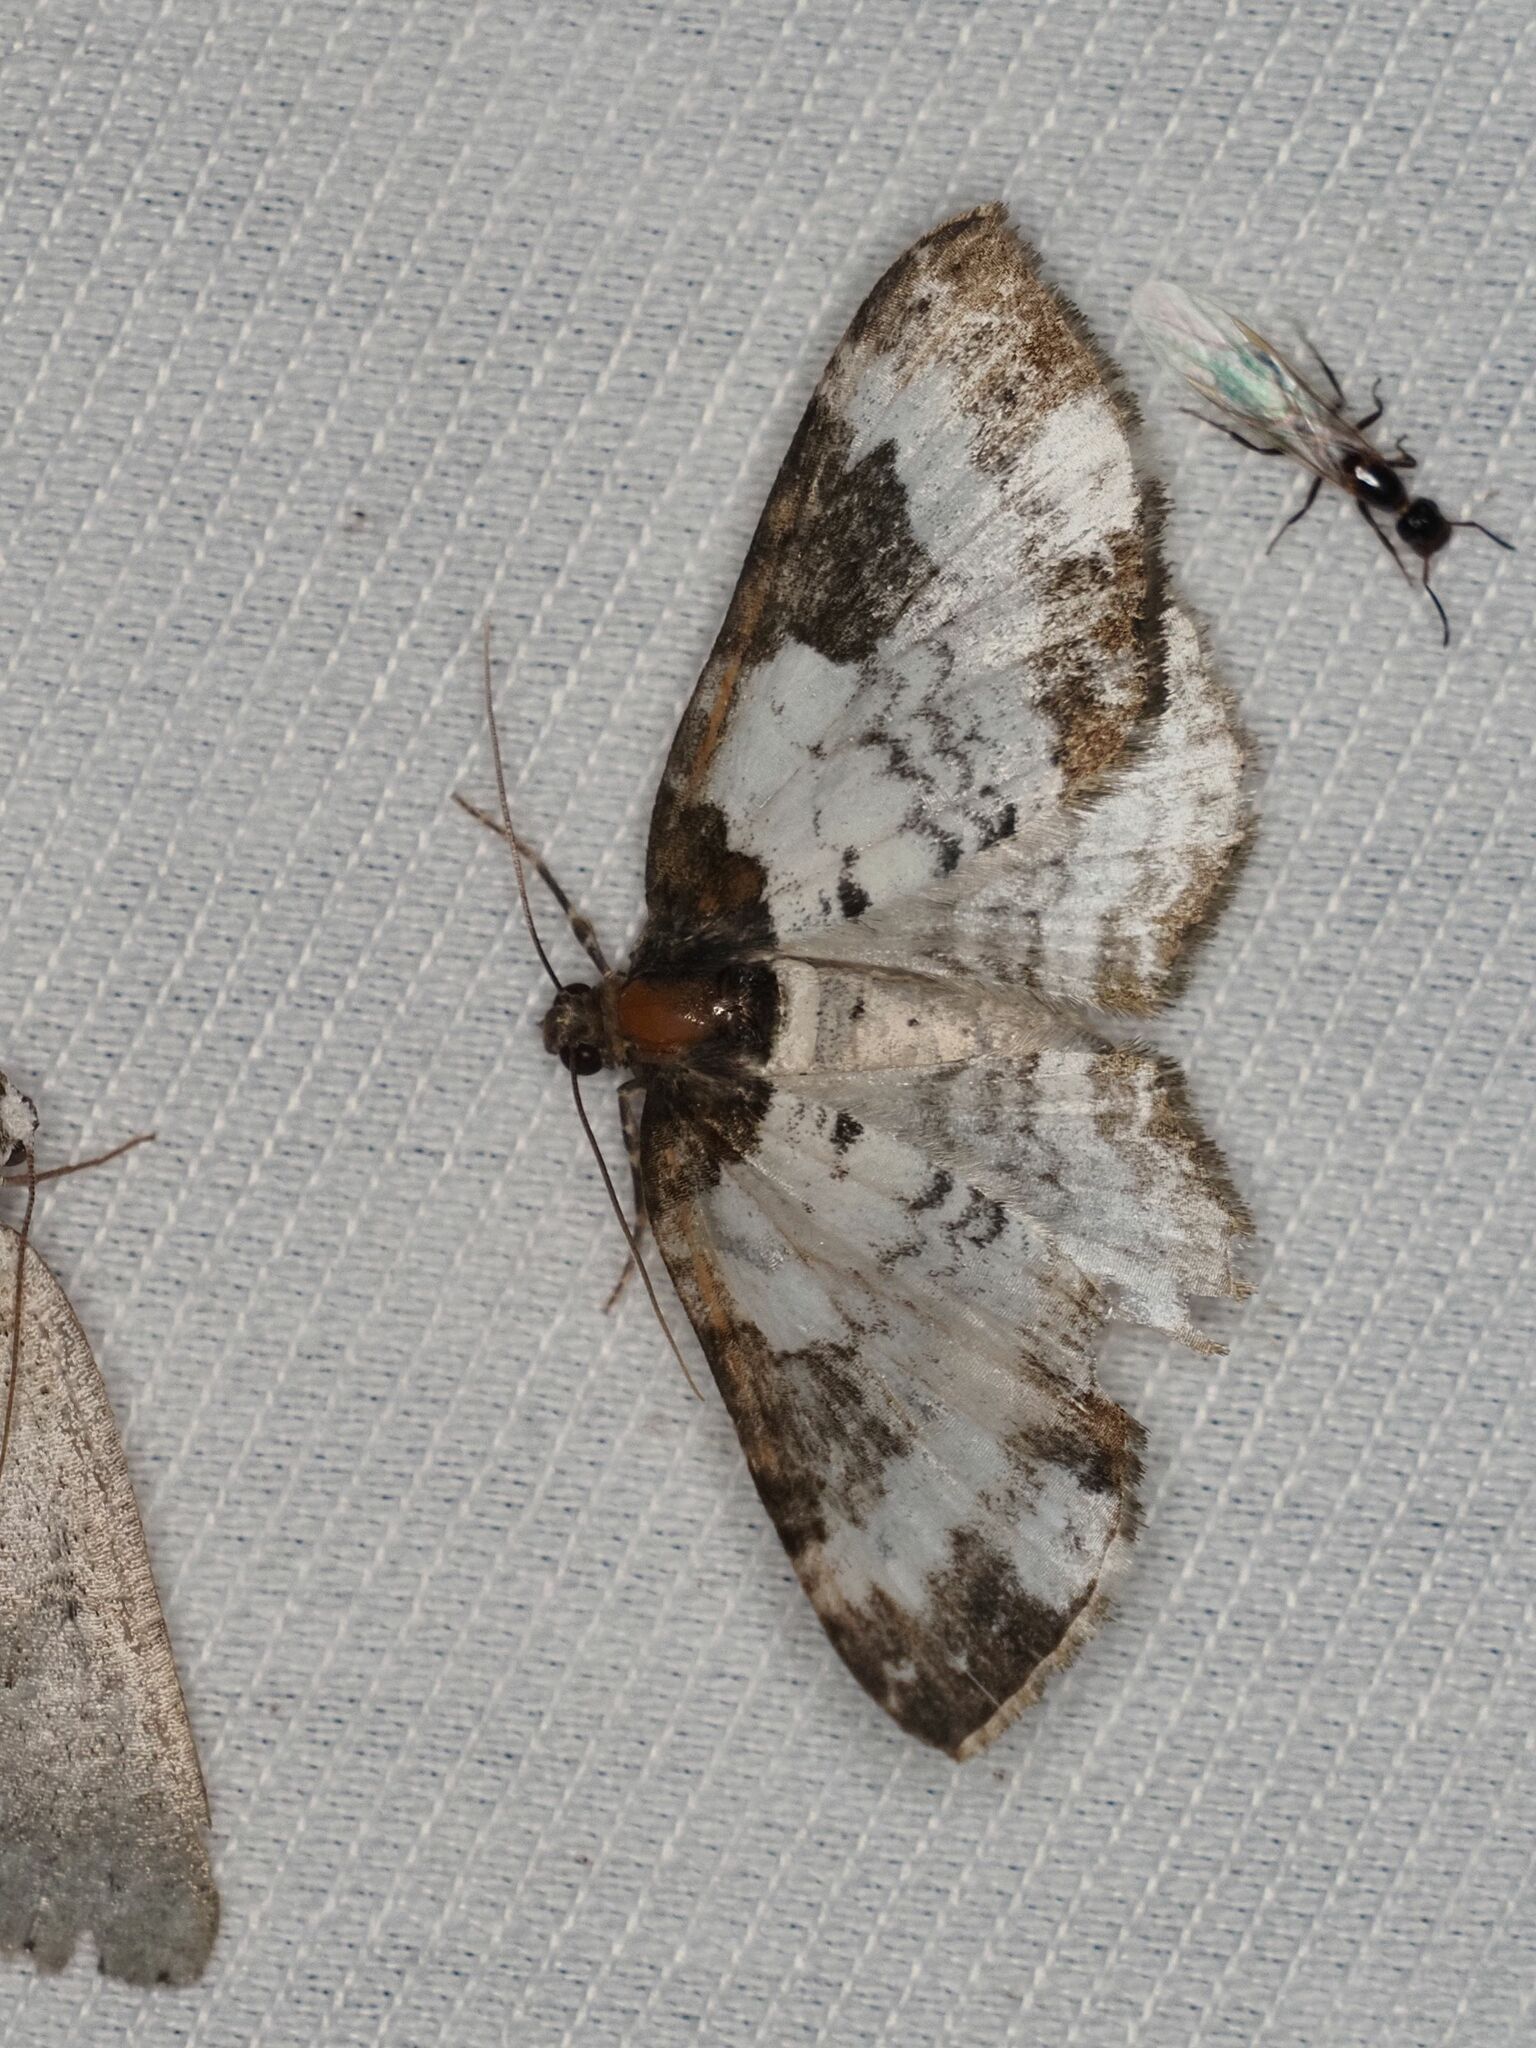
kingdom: Animalia
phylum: Arthropoda
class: Insecta
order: Lepidoptera
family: Geometridae
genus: Melanthia
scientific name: Melanthia procellata
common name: Pretty chalk carpet
